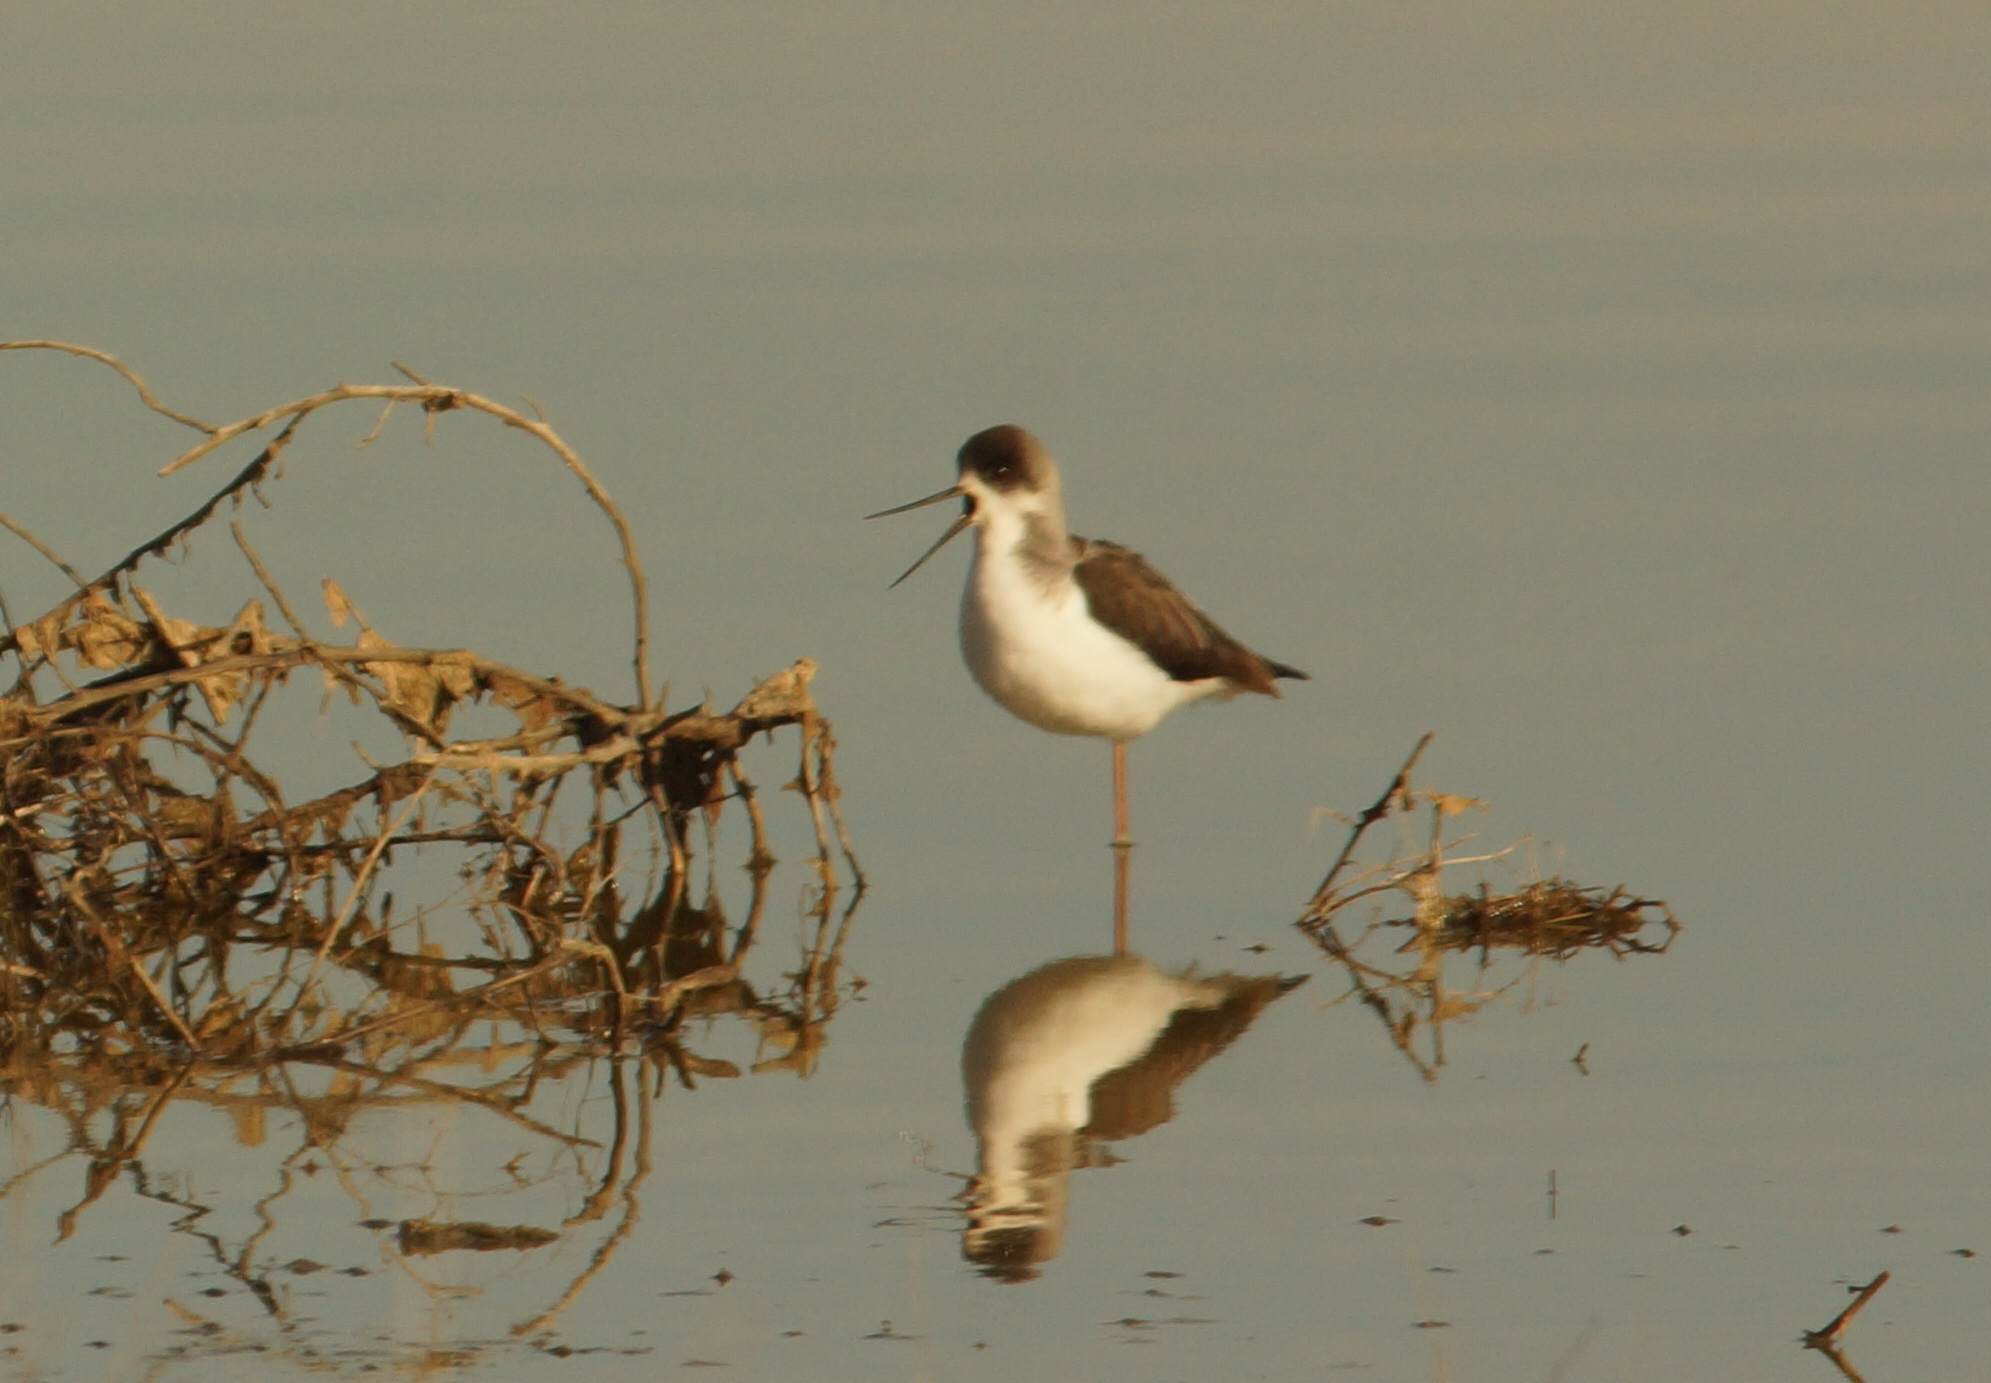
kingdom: Animalia
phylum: Chordata
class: Aves
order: Charadriiformes
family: Recurvirostridae
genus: Himantopus
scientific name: Himantopus himantopus
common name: Black-winged stilt
